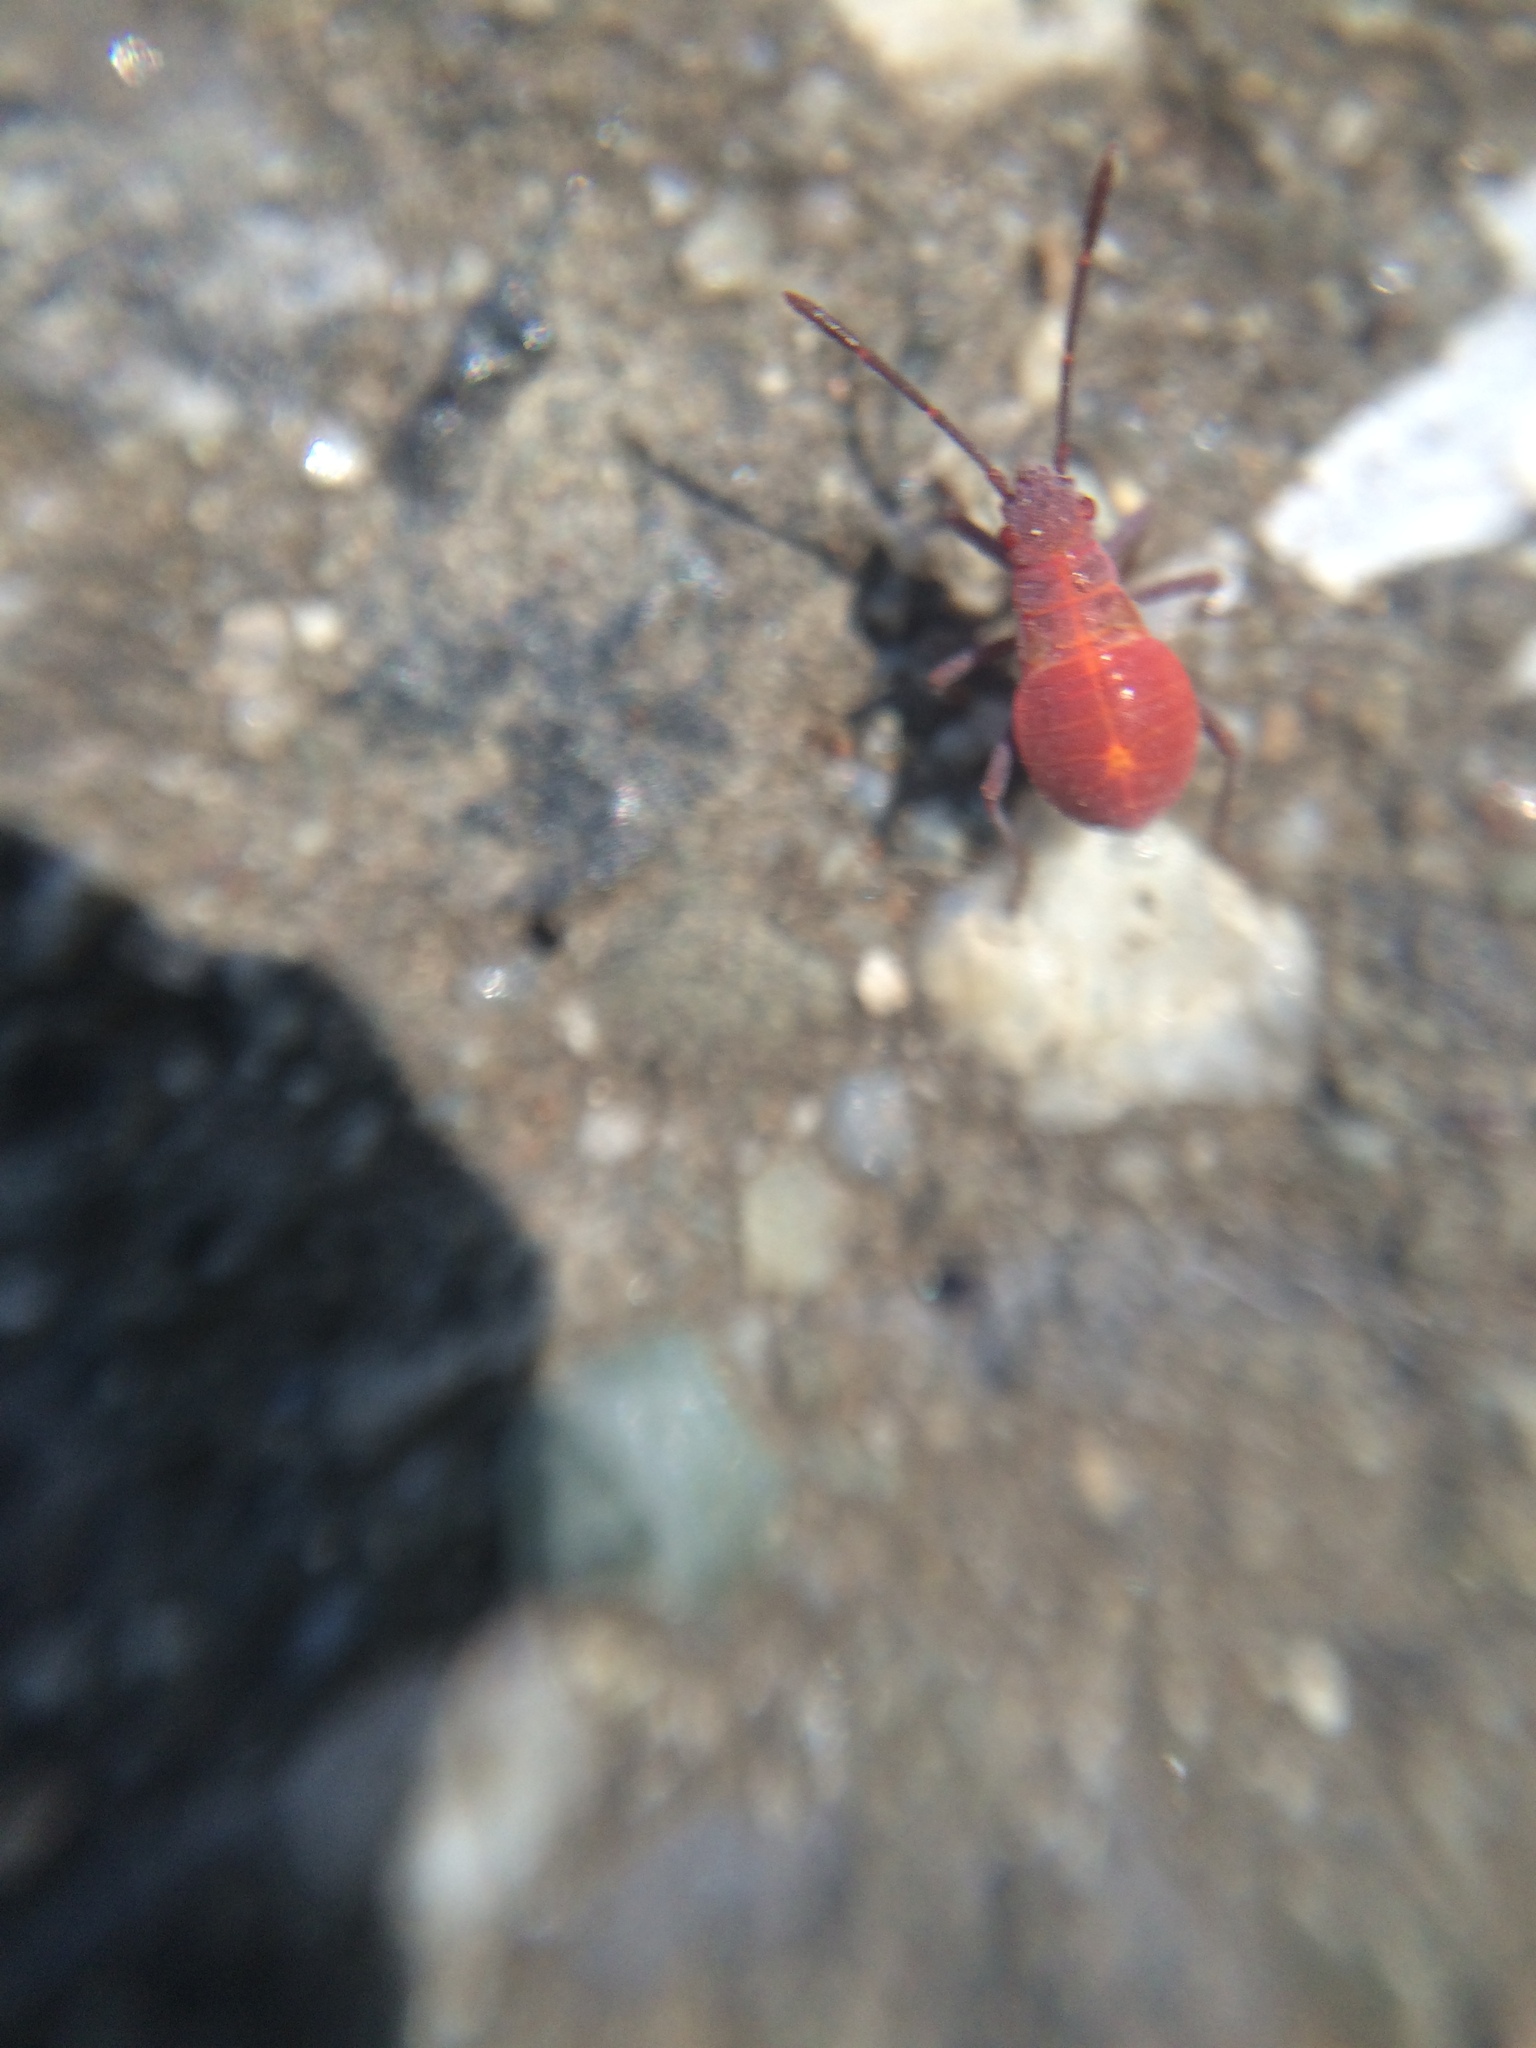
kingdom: Animalia
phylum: Arthropoda
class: Insecta
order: Hemiptera
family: Rhopalidae
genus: Boisea
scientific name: Boisea rubrolineata
